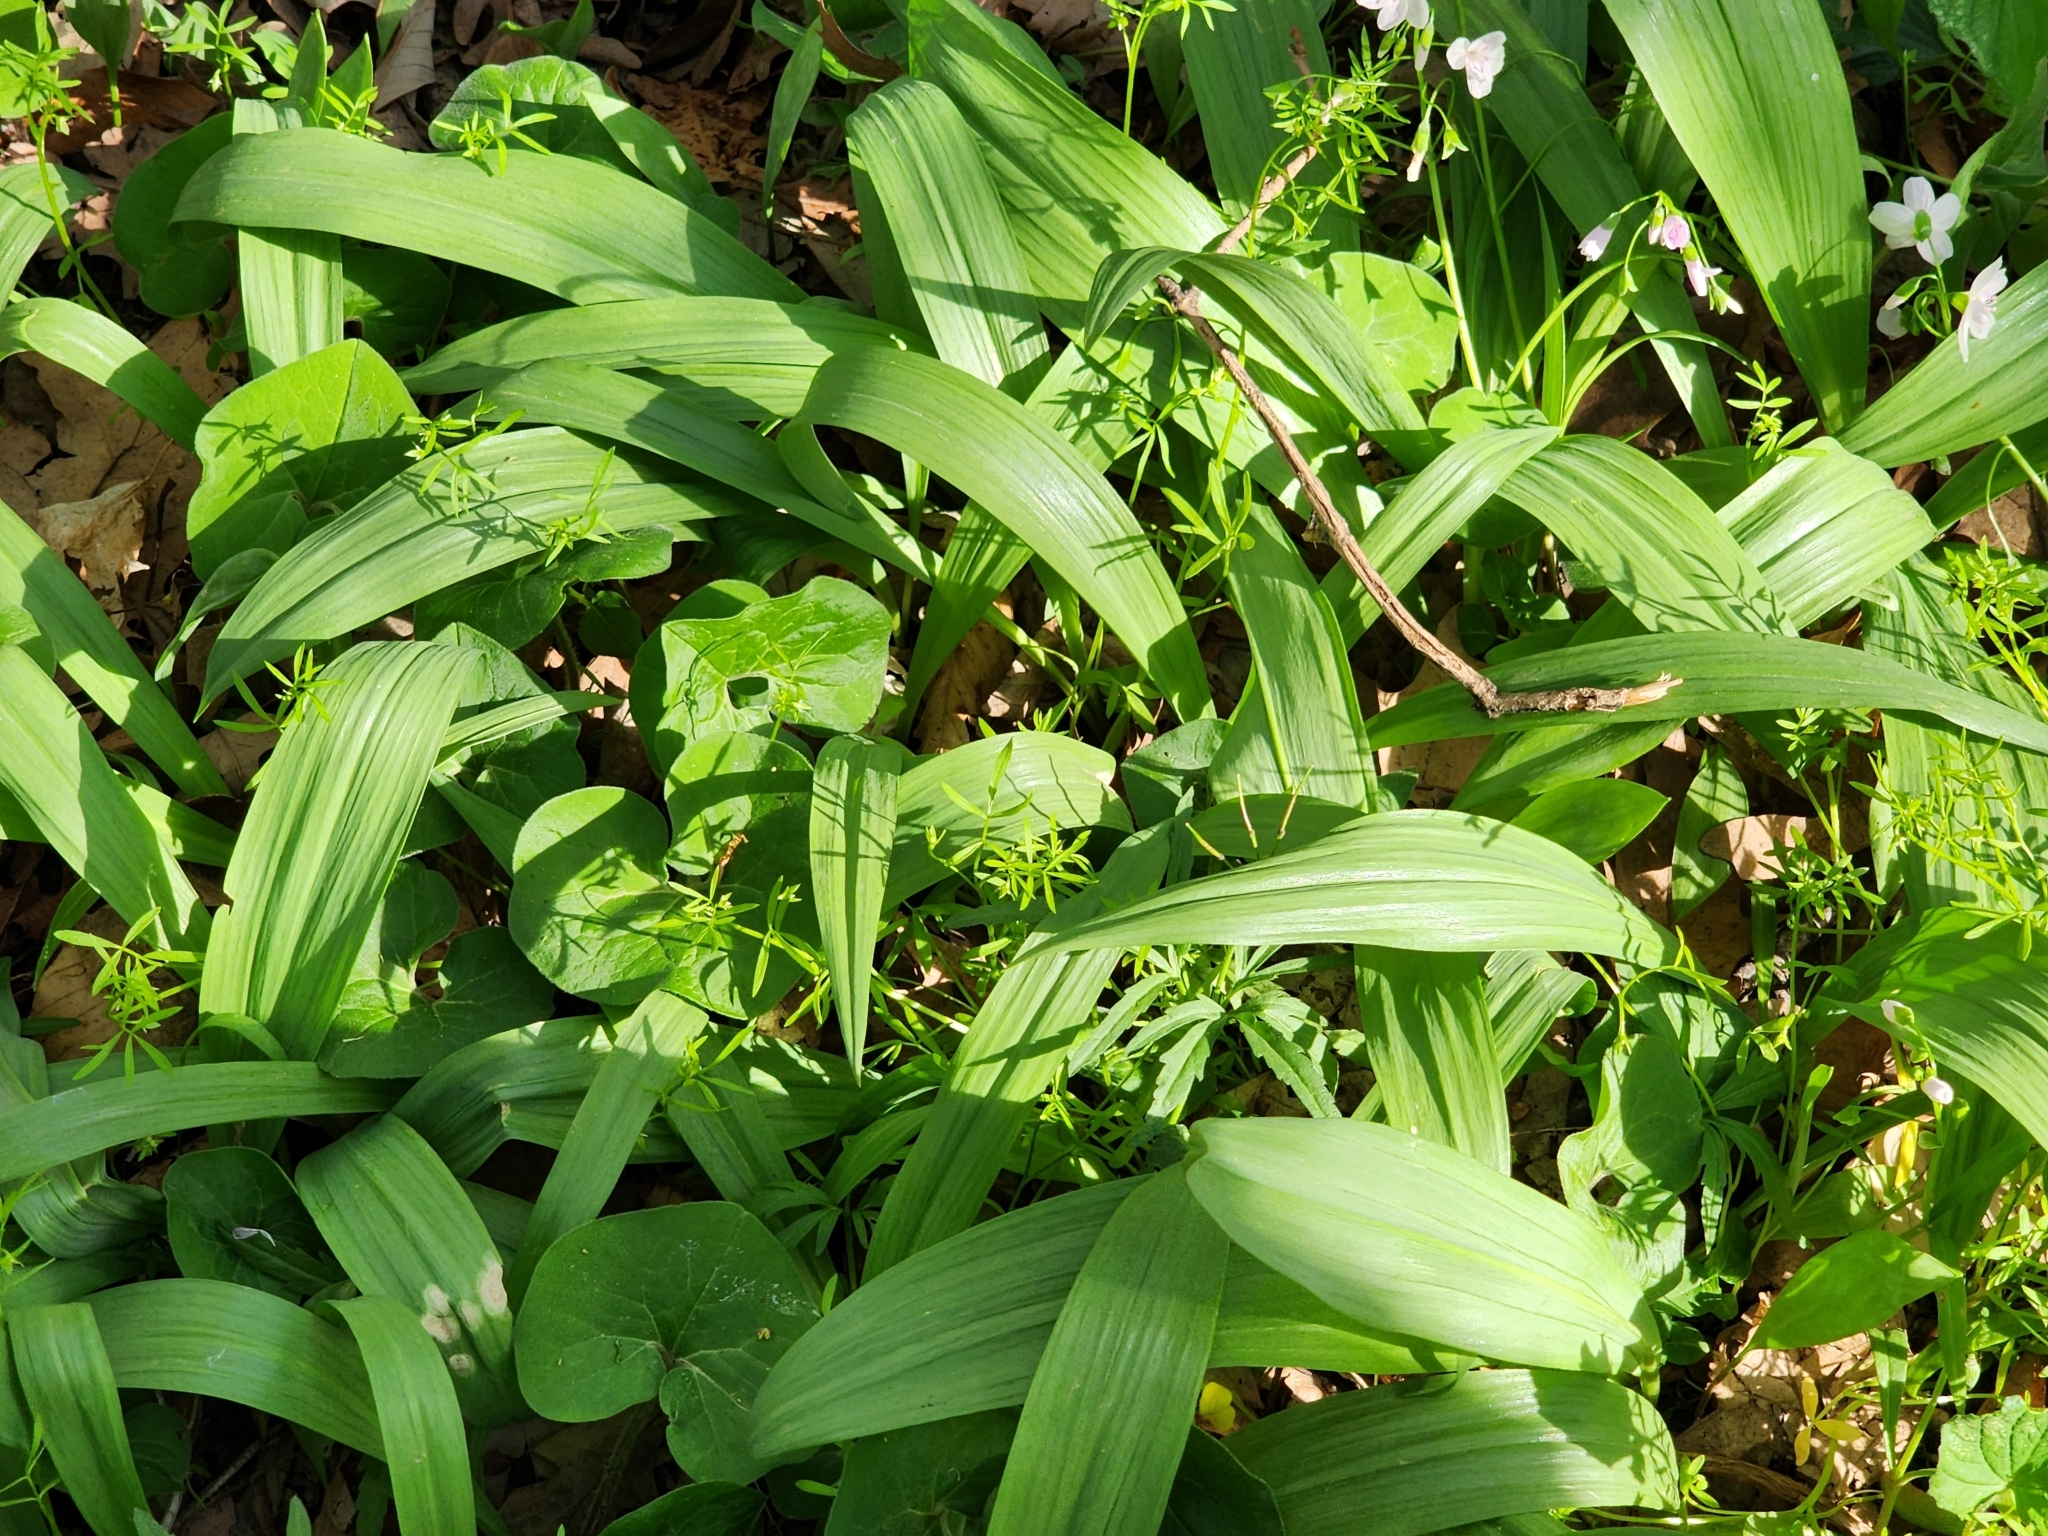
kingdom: Plantae
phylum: Tracheophyta
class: Liliopsida
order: Asparagales
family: Amaryllidaceae
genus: Allium
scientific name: Allium tricoccum
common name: Ramp
